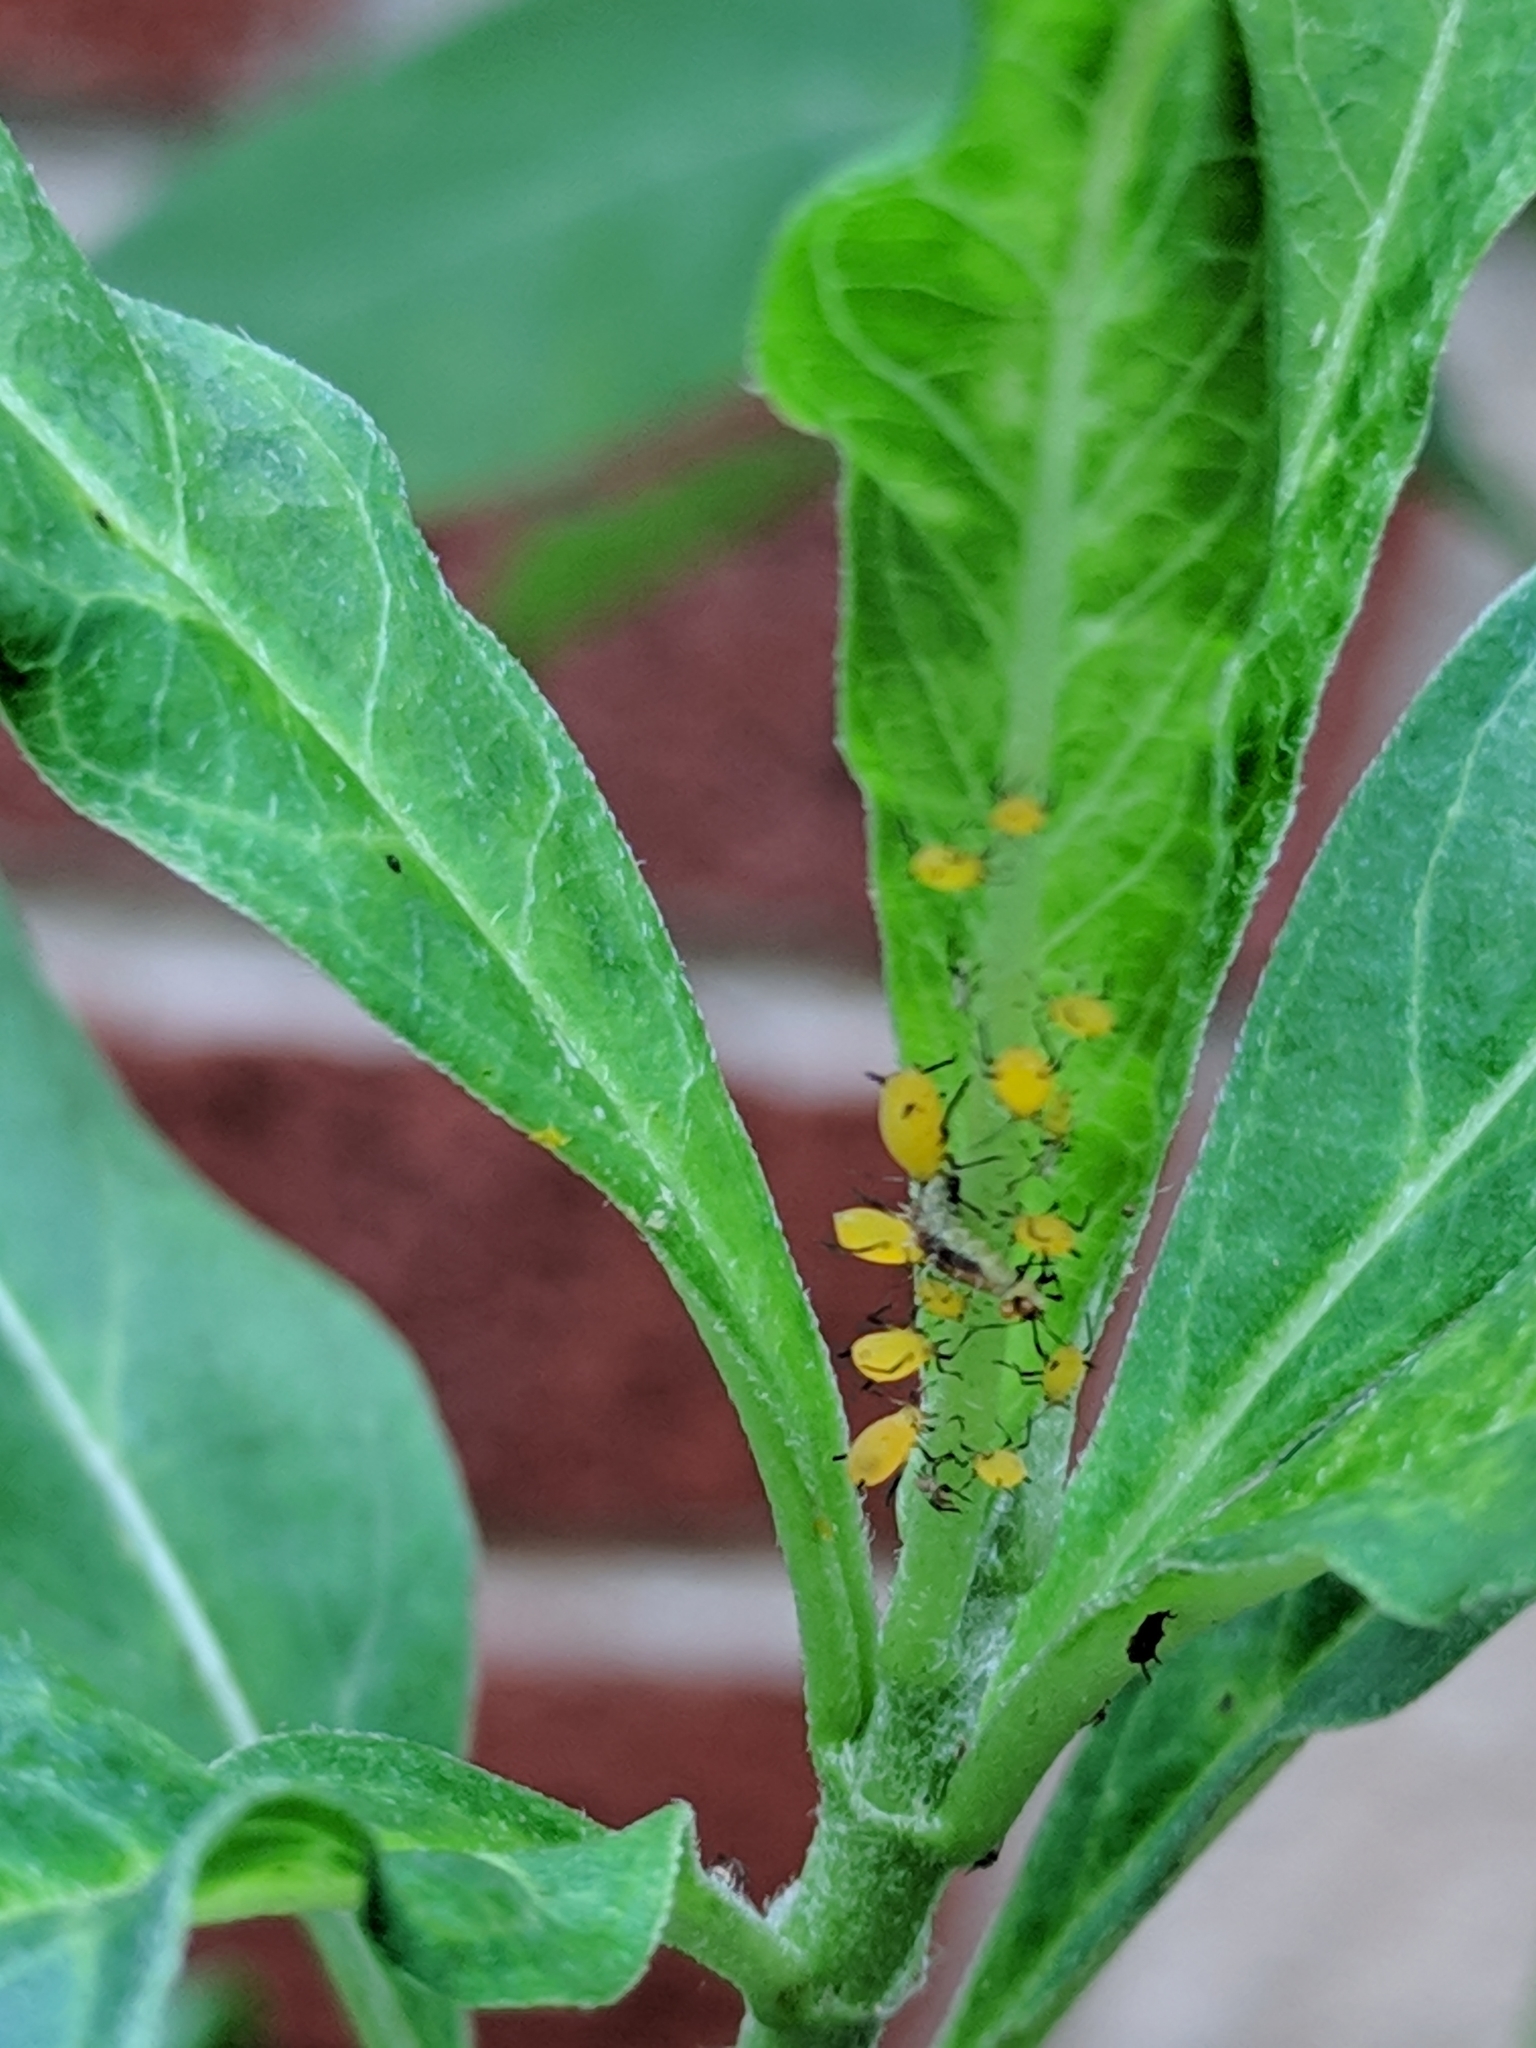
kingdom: Animalia
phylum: Arthropoda
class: Insecta
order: Hemiptera
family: Aphididae
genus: Aphis
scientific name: Aphis nerii
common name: Oleander aphid
